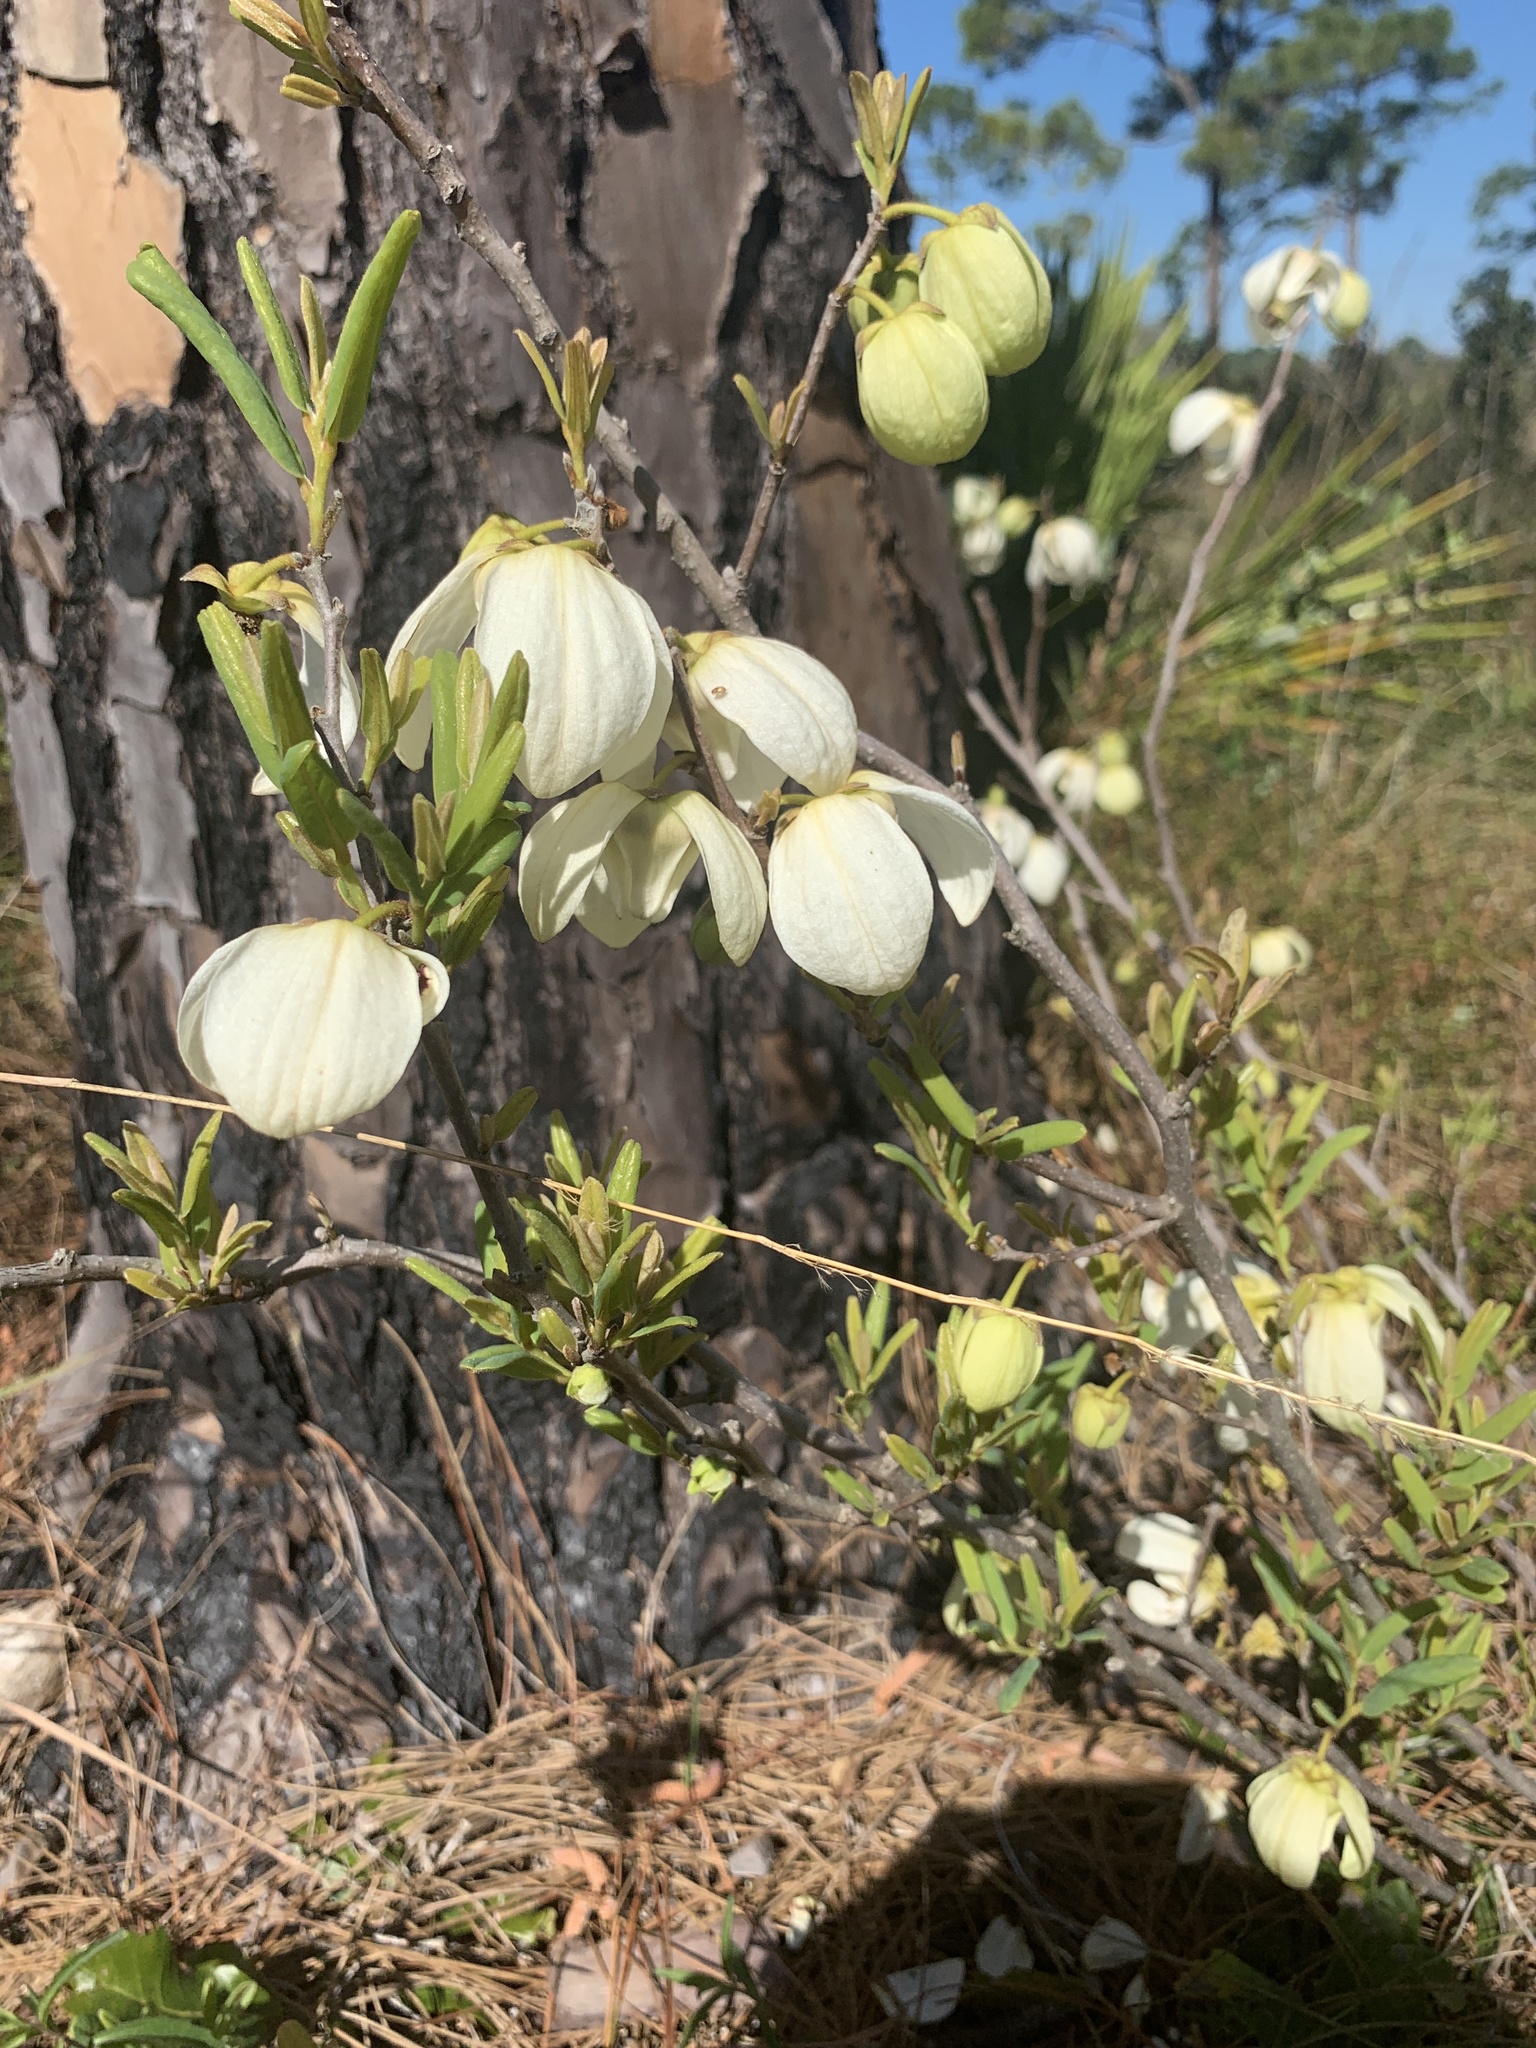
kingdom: Plantae
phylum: Tracheophyta
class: Magnoliopsida
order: Magnoliales
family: Annonaceae
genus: Asimina
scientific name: Asimina reticulata
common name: Flag pawpaw
